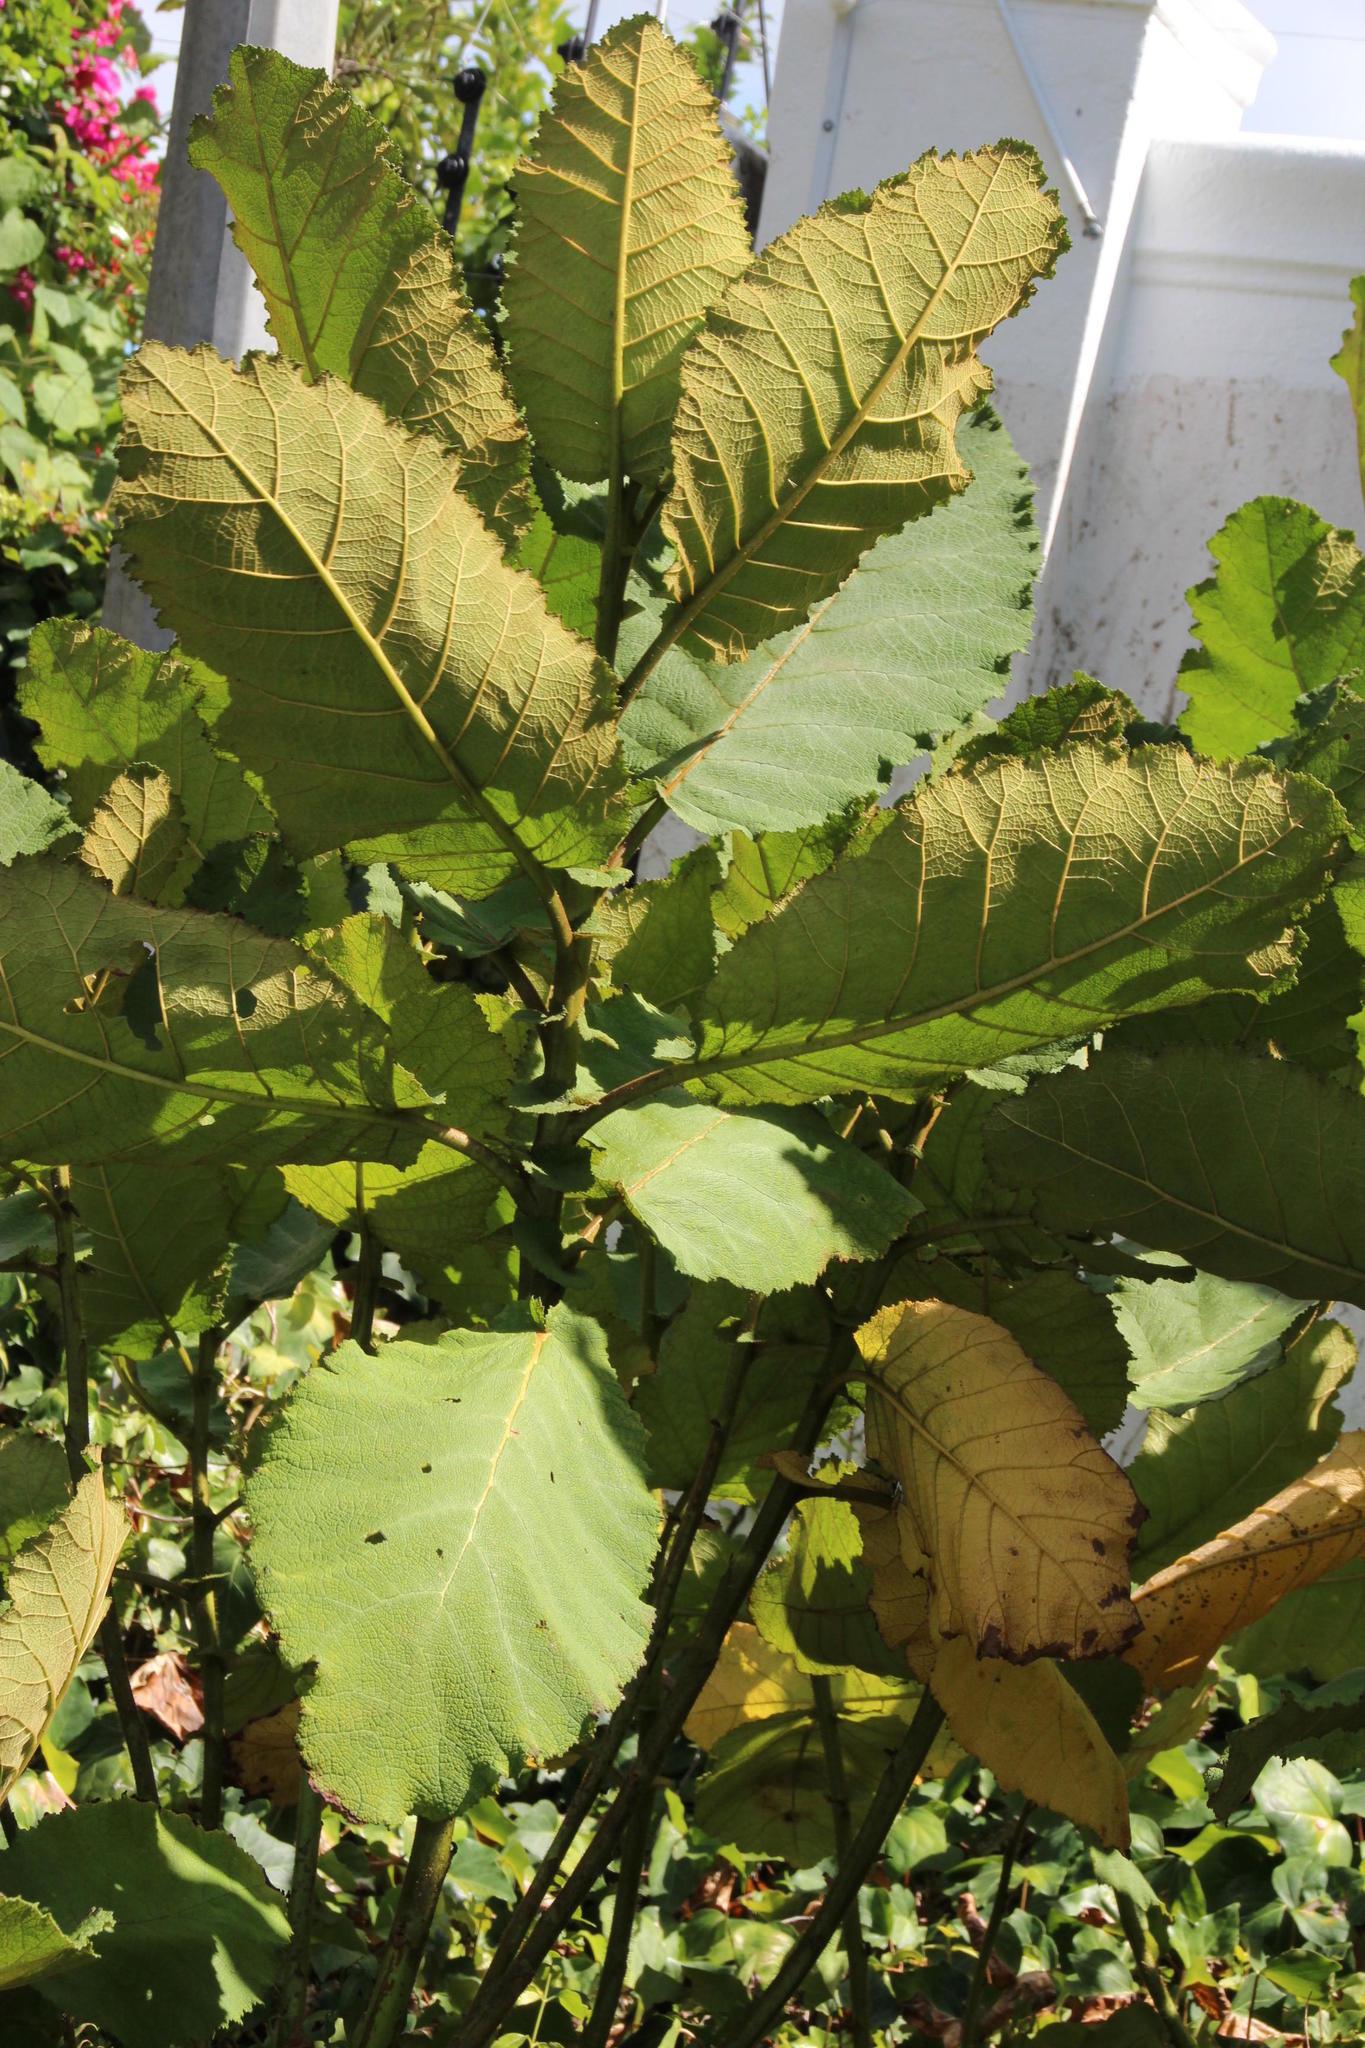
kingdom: Plantae
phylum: Tracheophyta
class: Magnoliopsida
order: Boraginales
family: Namaceae
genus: Wigandia
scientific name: Wigandia urens
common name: Caracus wigandia
